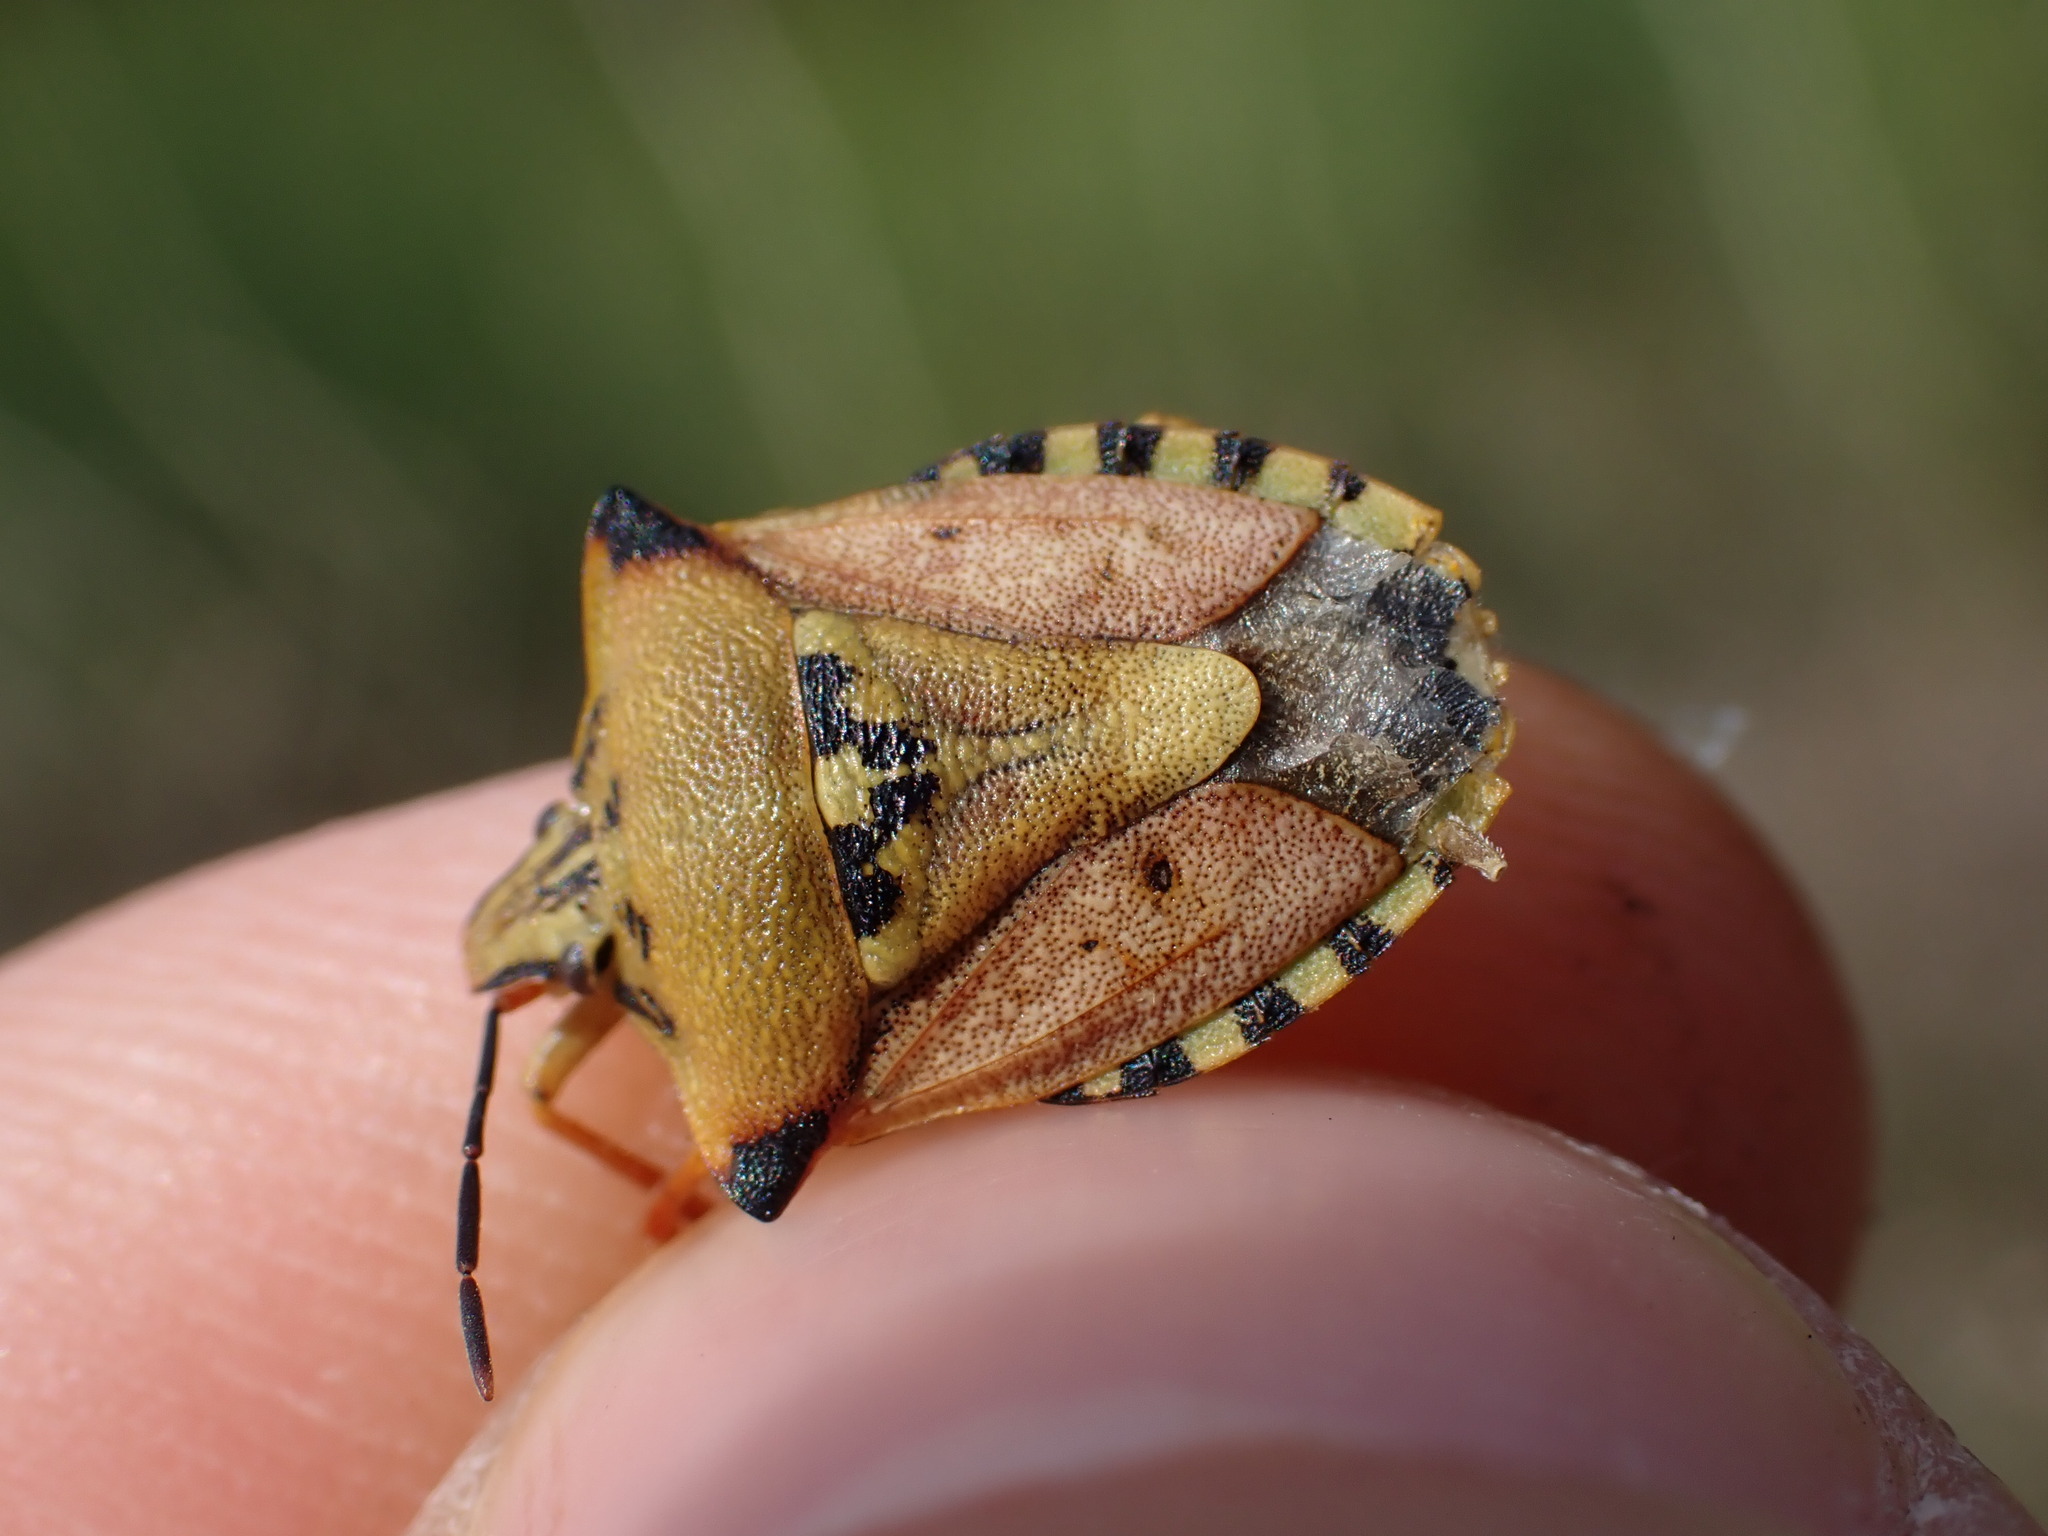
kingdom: Animalia
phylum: Arthropoda
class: Insecta
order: Hemiptera
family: Pentatomidae
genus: Carpocoris
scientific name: Carpocoris mediterraneus
